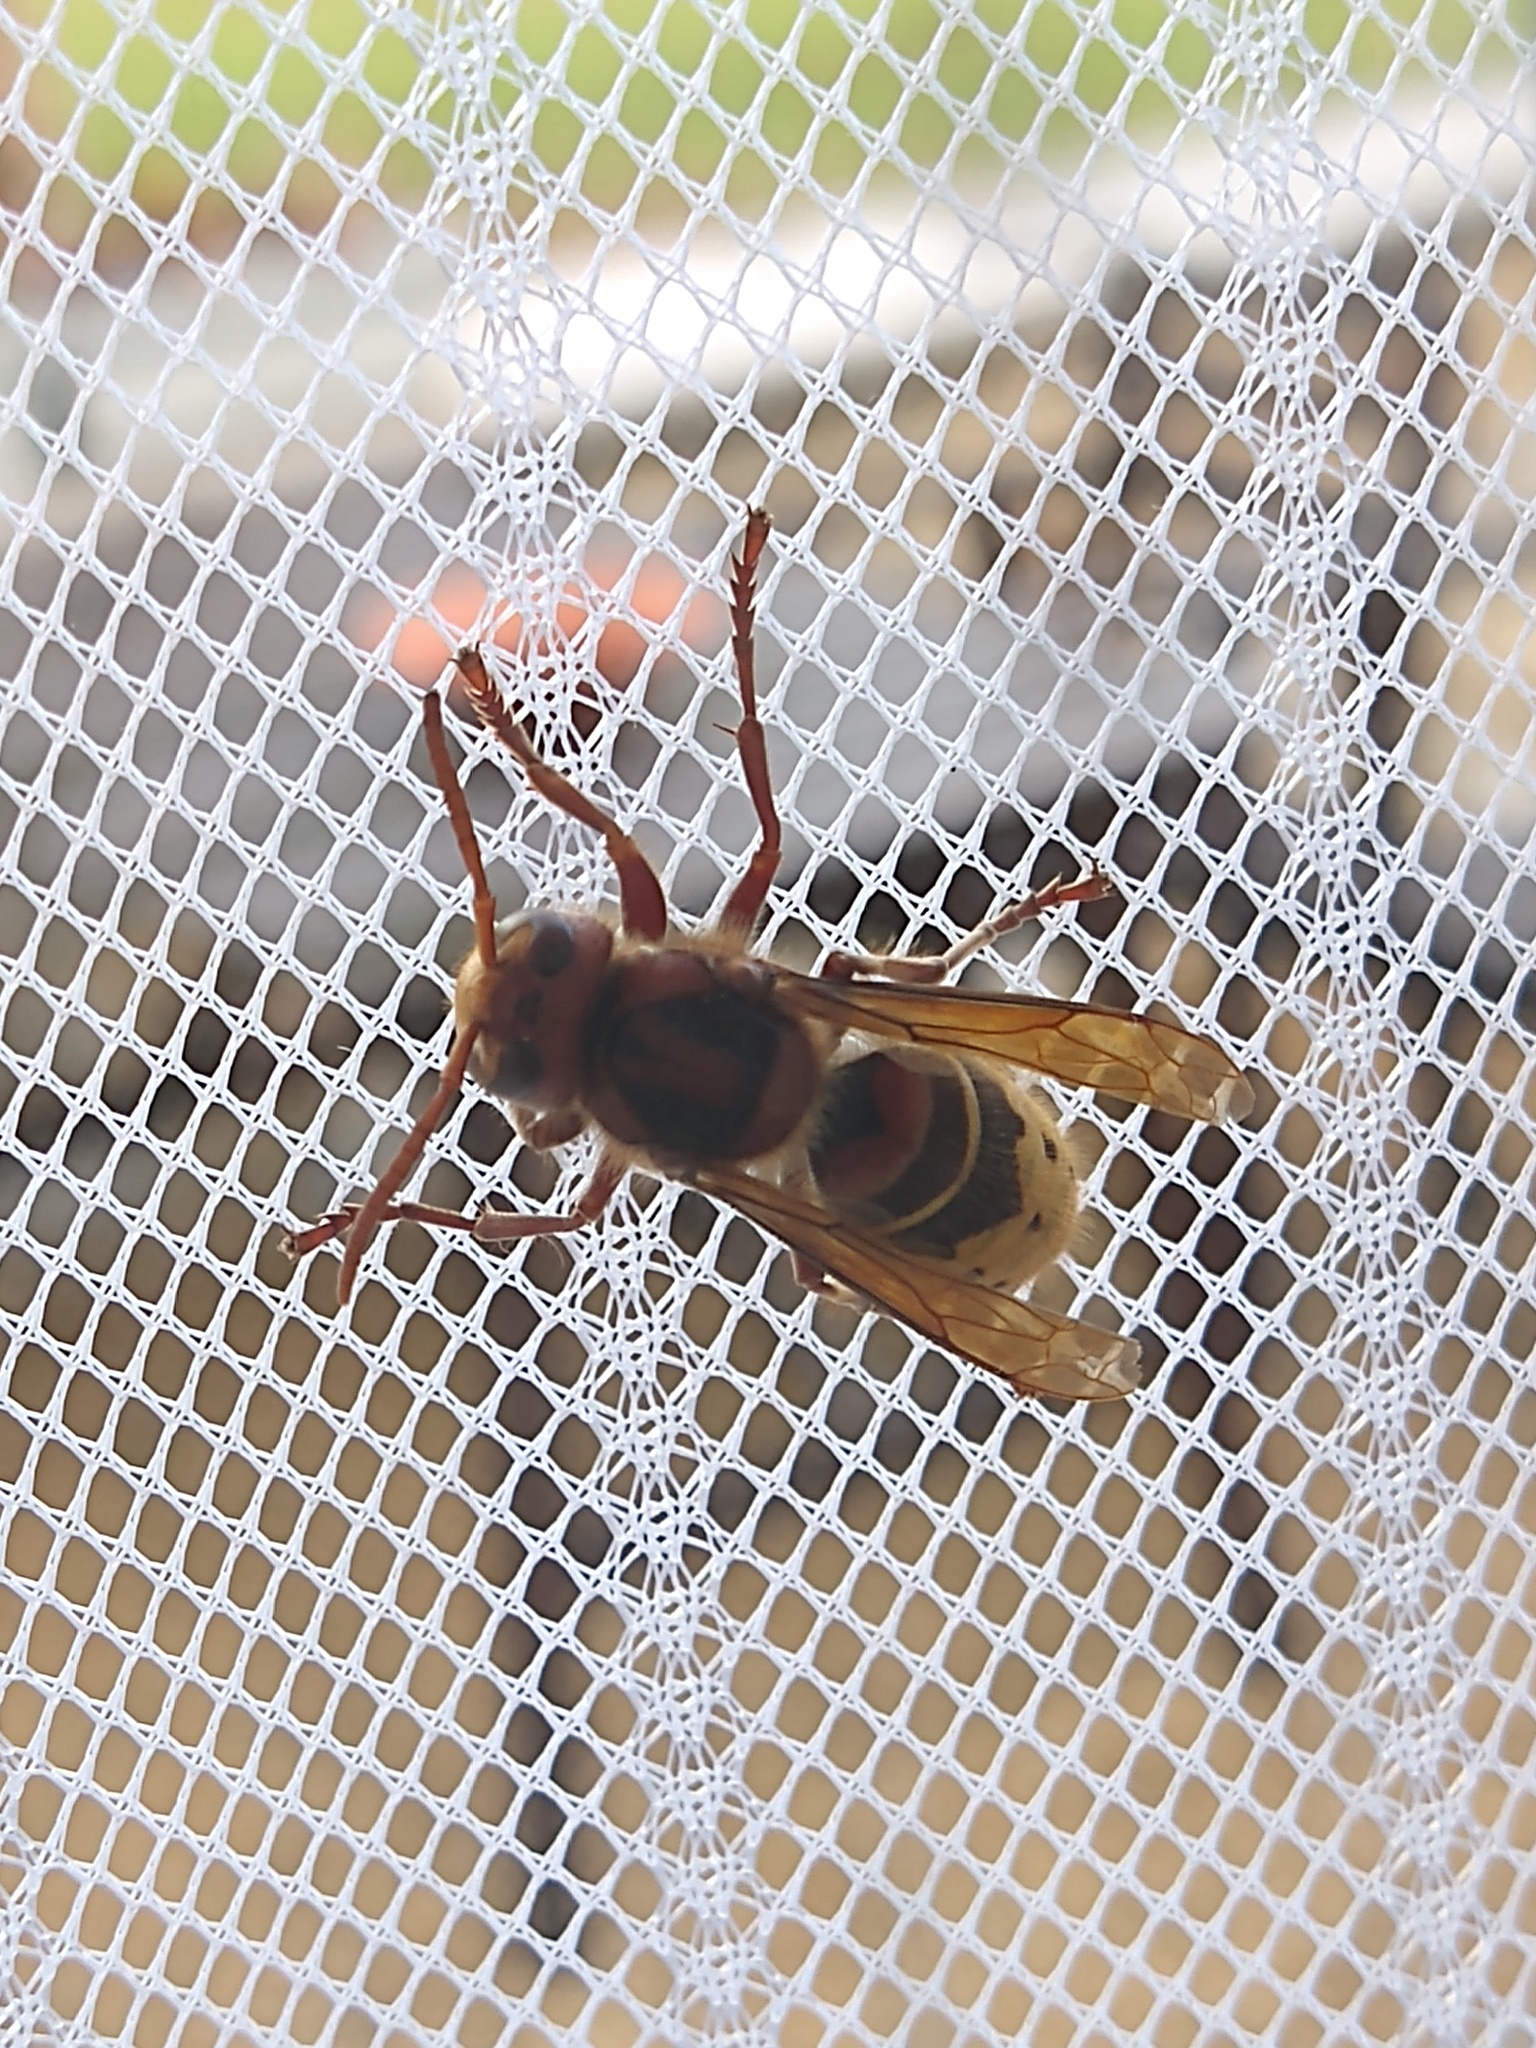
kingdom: Animalia
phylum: Arthropoda
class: Insecta
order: Hymenoptera
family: Vespidae
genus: Vespa
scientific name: Vespa crabro
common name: Hornet
